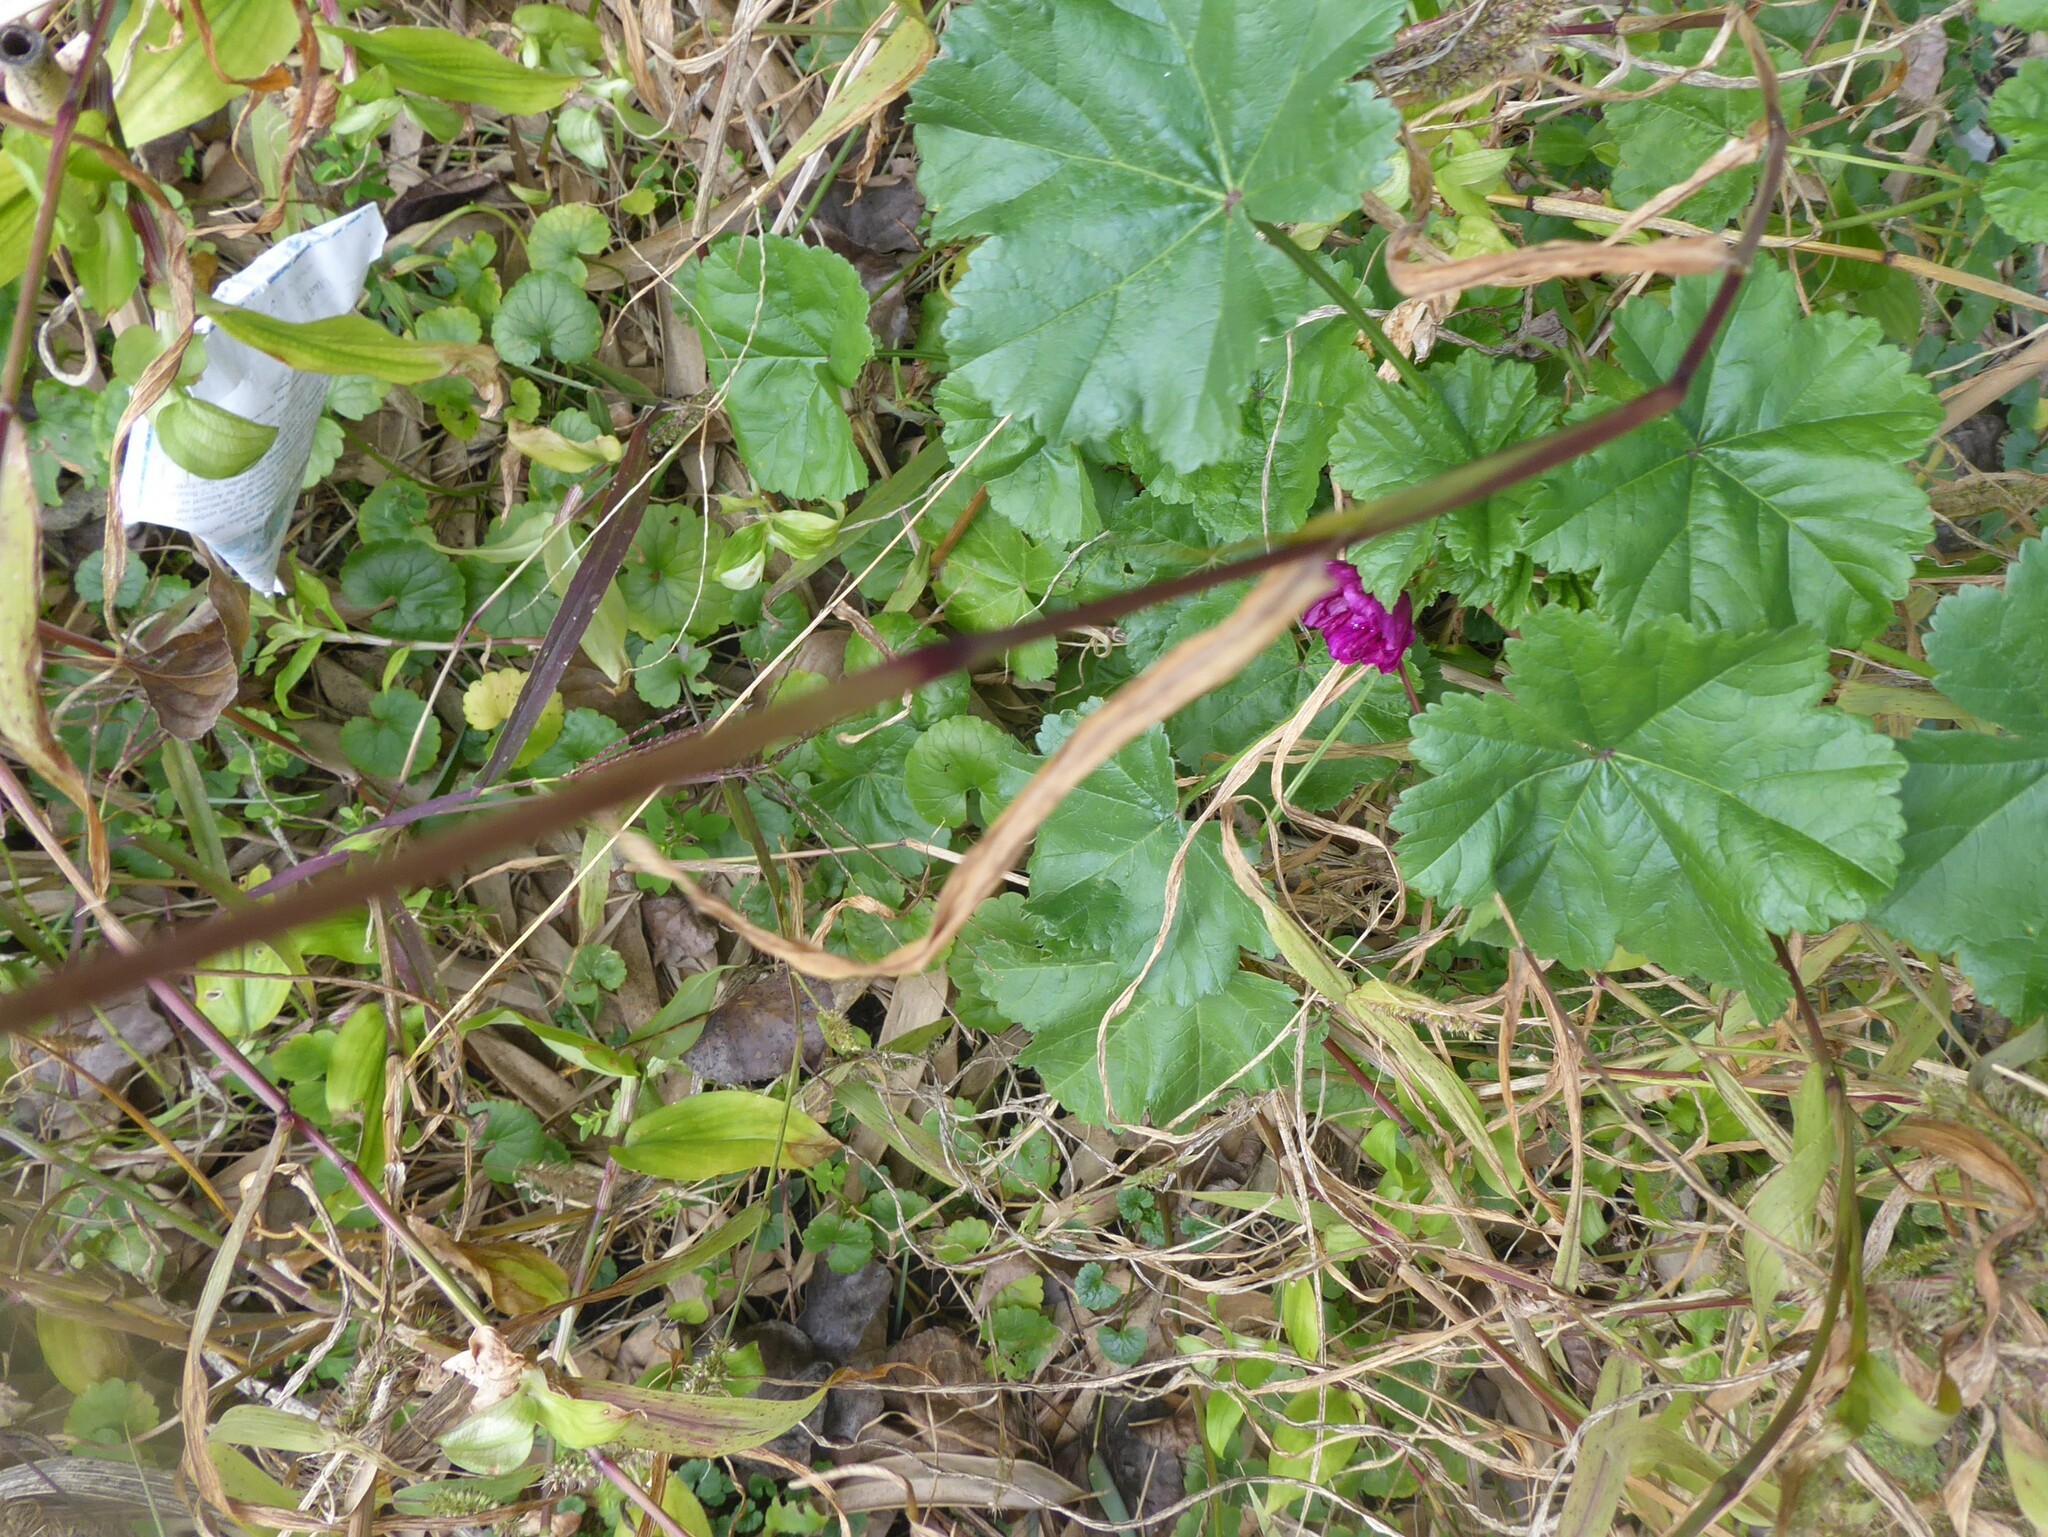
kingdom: Plantae
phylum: Tracheophyta
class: Magnoliopsida
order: Malvales
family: Malvaceae
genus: Malva
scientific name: Malva sylvestris
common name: Common mallow
